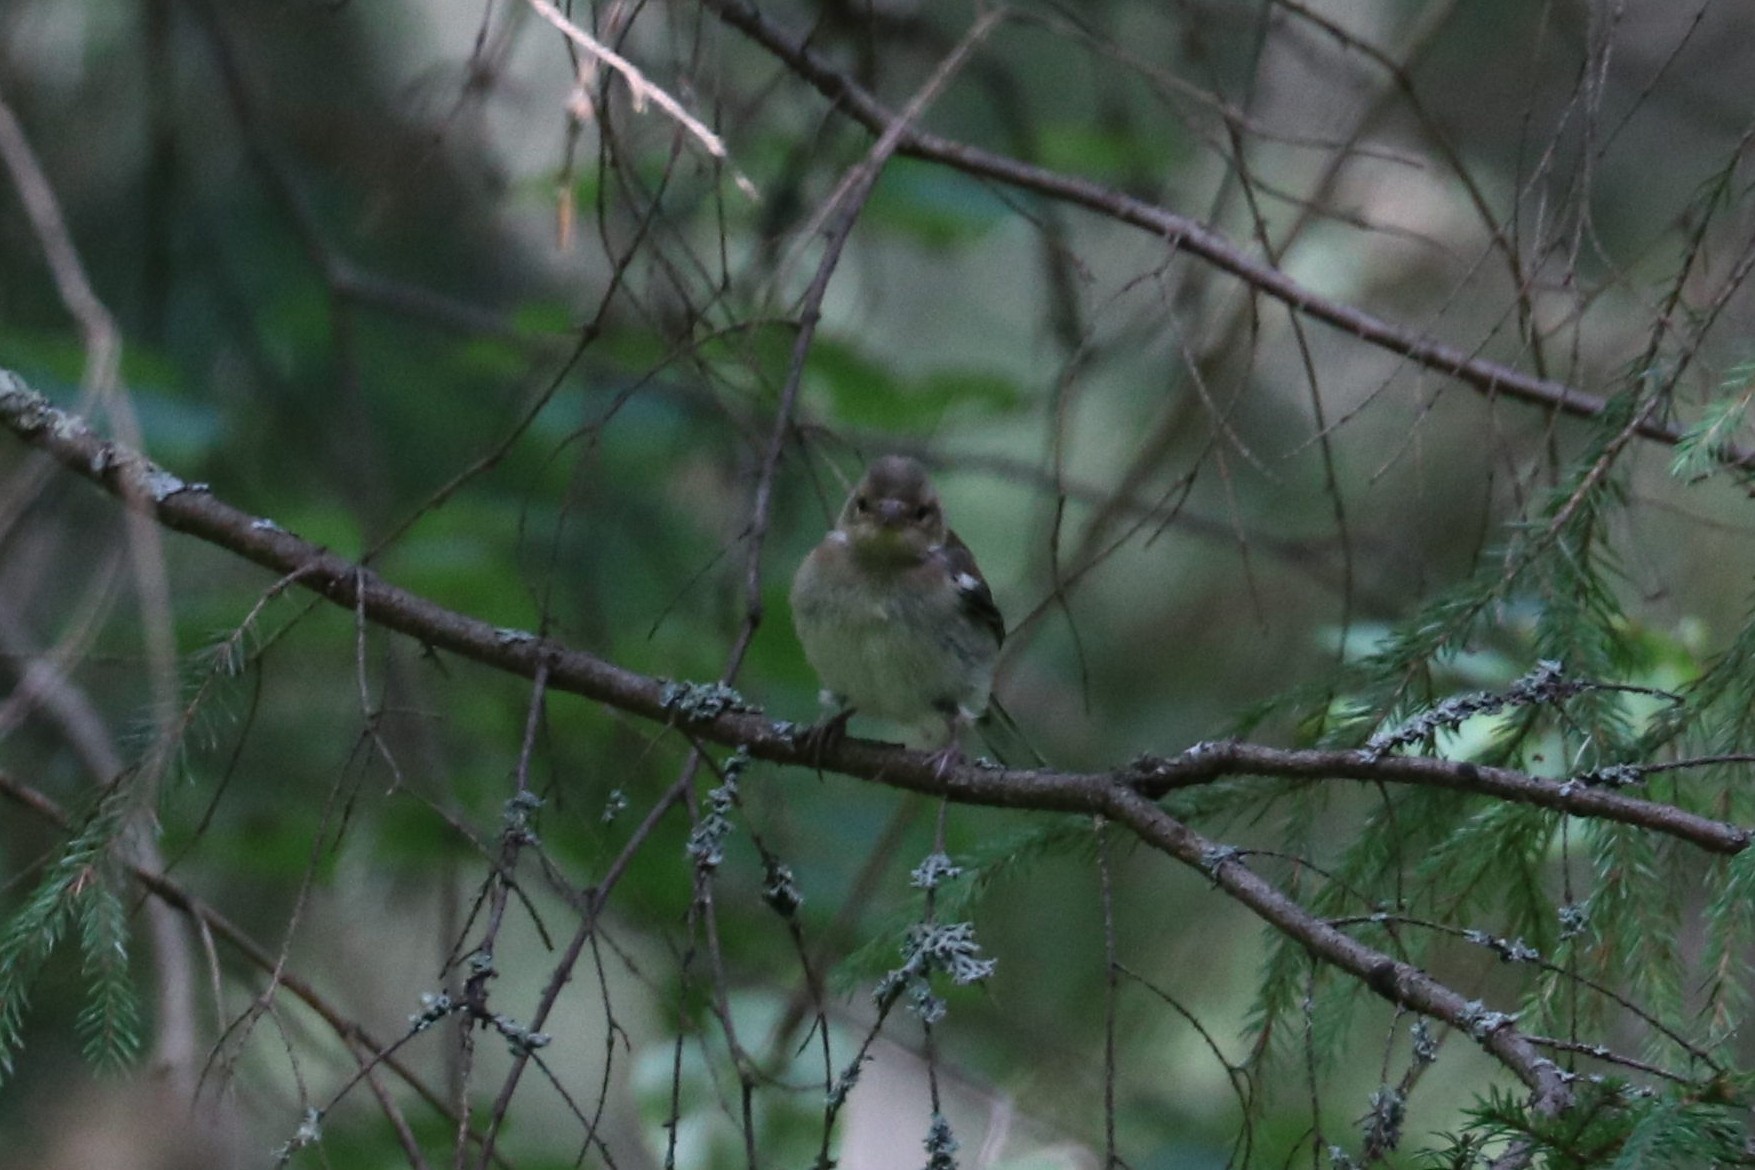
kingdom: Animalia
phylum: Chordata
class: Aves
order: Passeriformes
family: Fringillidae
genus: Fringilla
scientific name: Fringilla coelebs
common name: Common chaffinch
